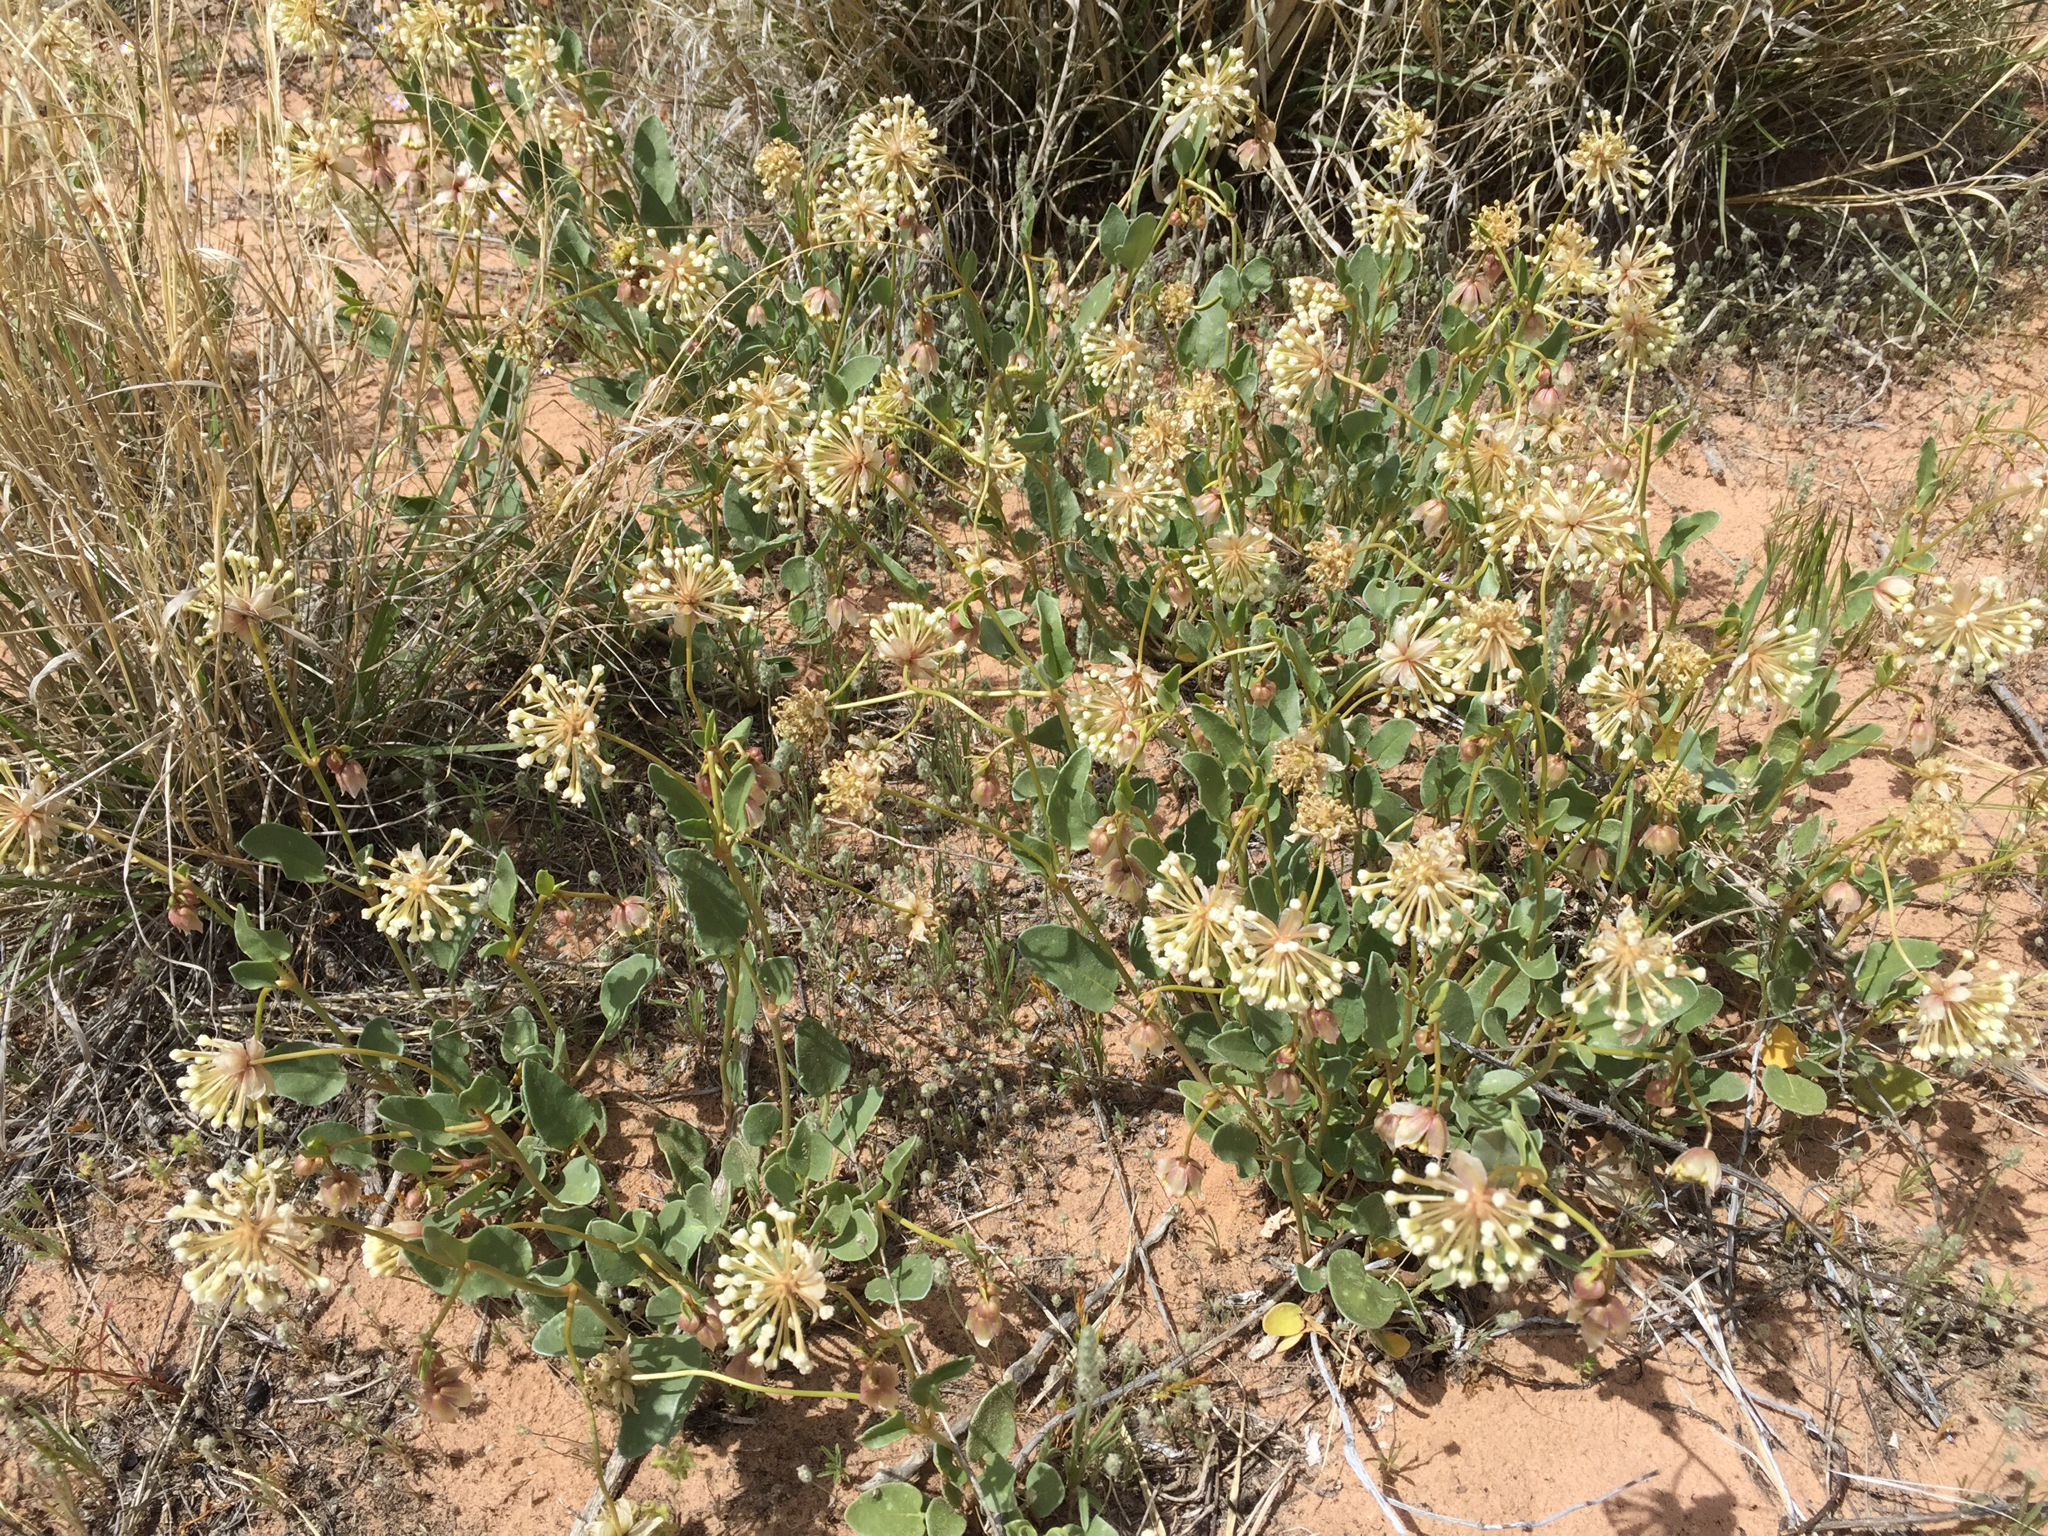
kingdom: Plantae
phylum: Tracheophyta
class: Magnoliopsida
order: Caryophyllales
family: Nyctaginaceae
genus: Abronia
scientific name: Abronia elliptica
